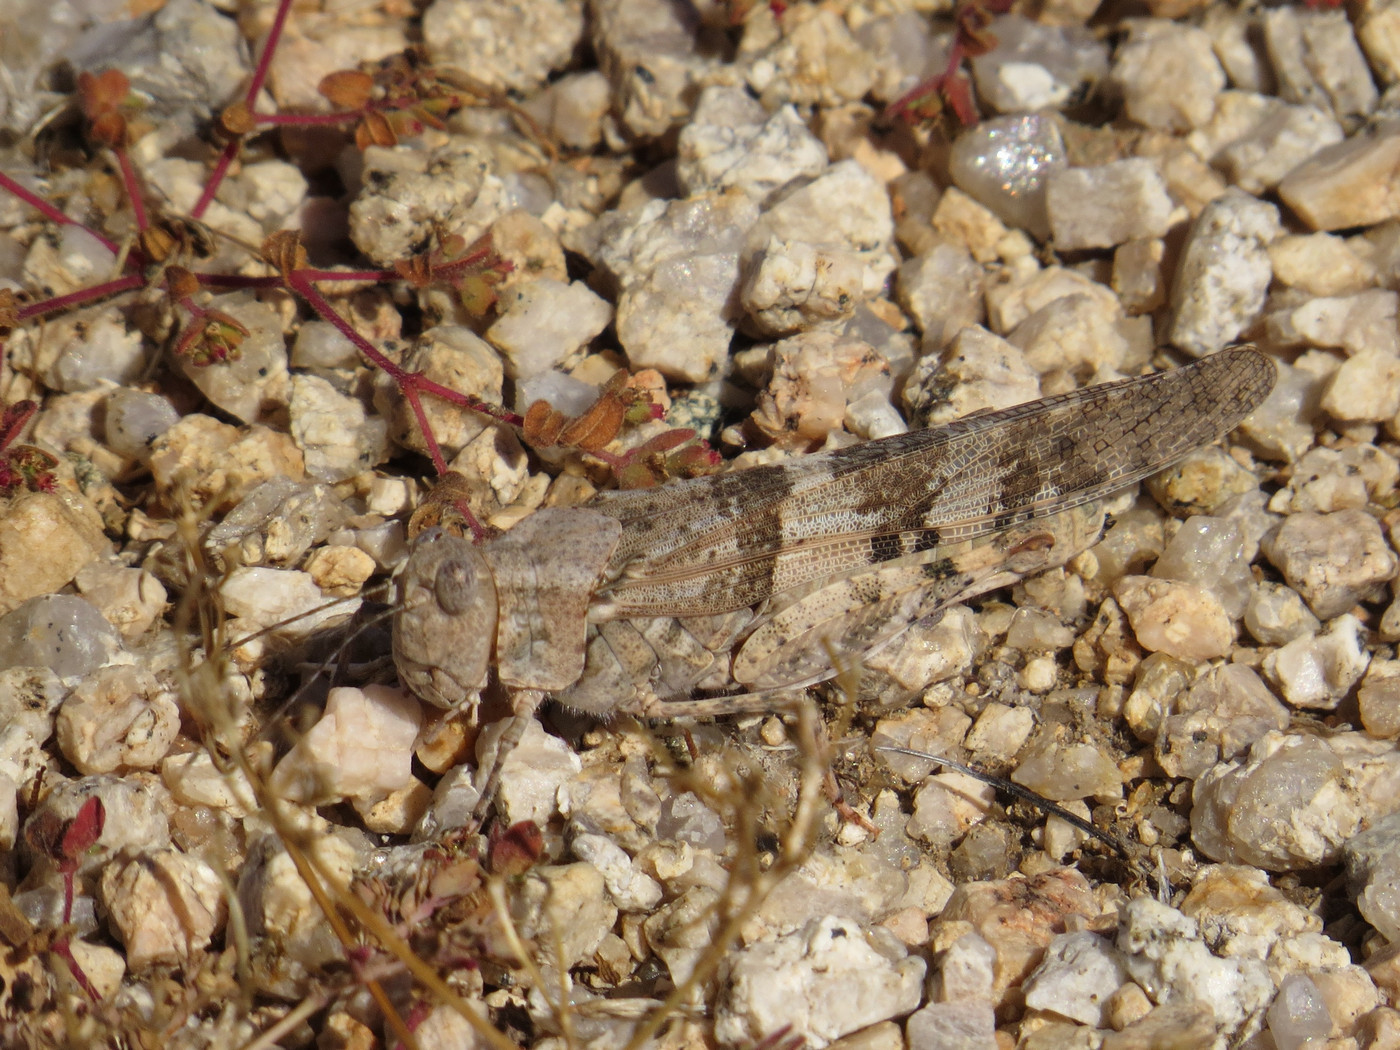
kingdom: Animalia
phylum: Arthropoda
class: Insecta
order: Orthoptera
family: Acrididae
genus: Trimerotropis
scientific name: Trimerotropis pallidipennis
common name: Pallid-winged grasshopper
